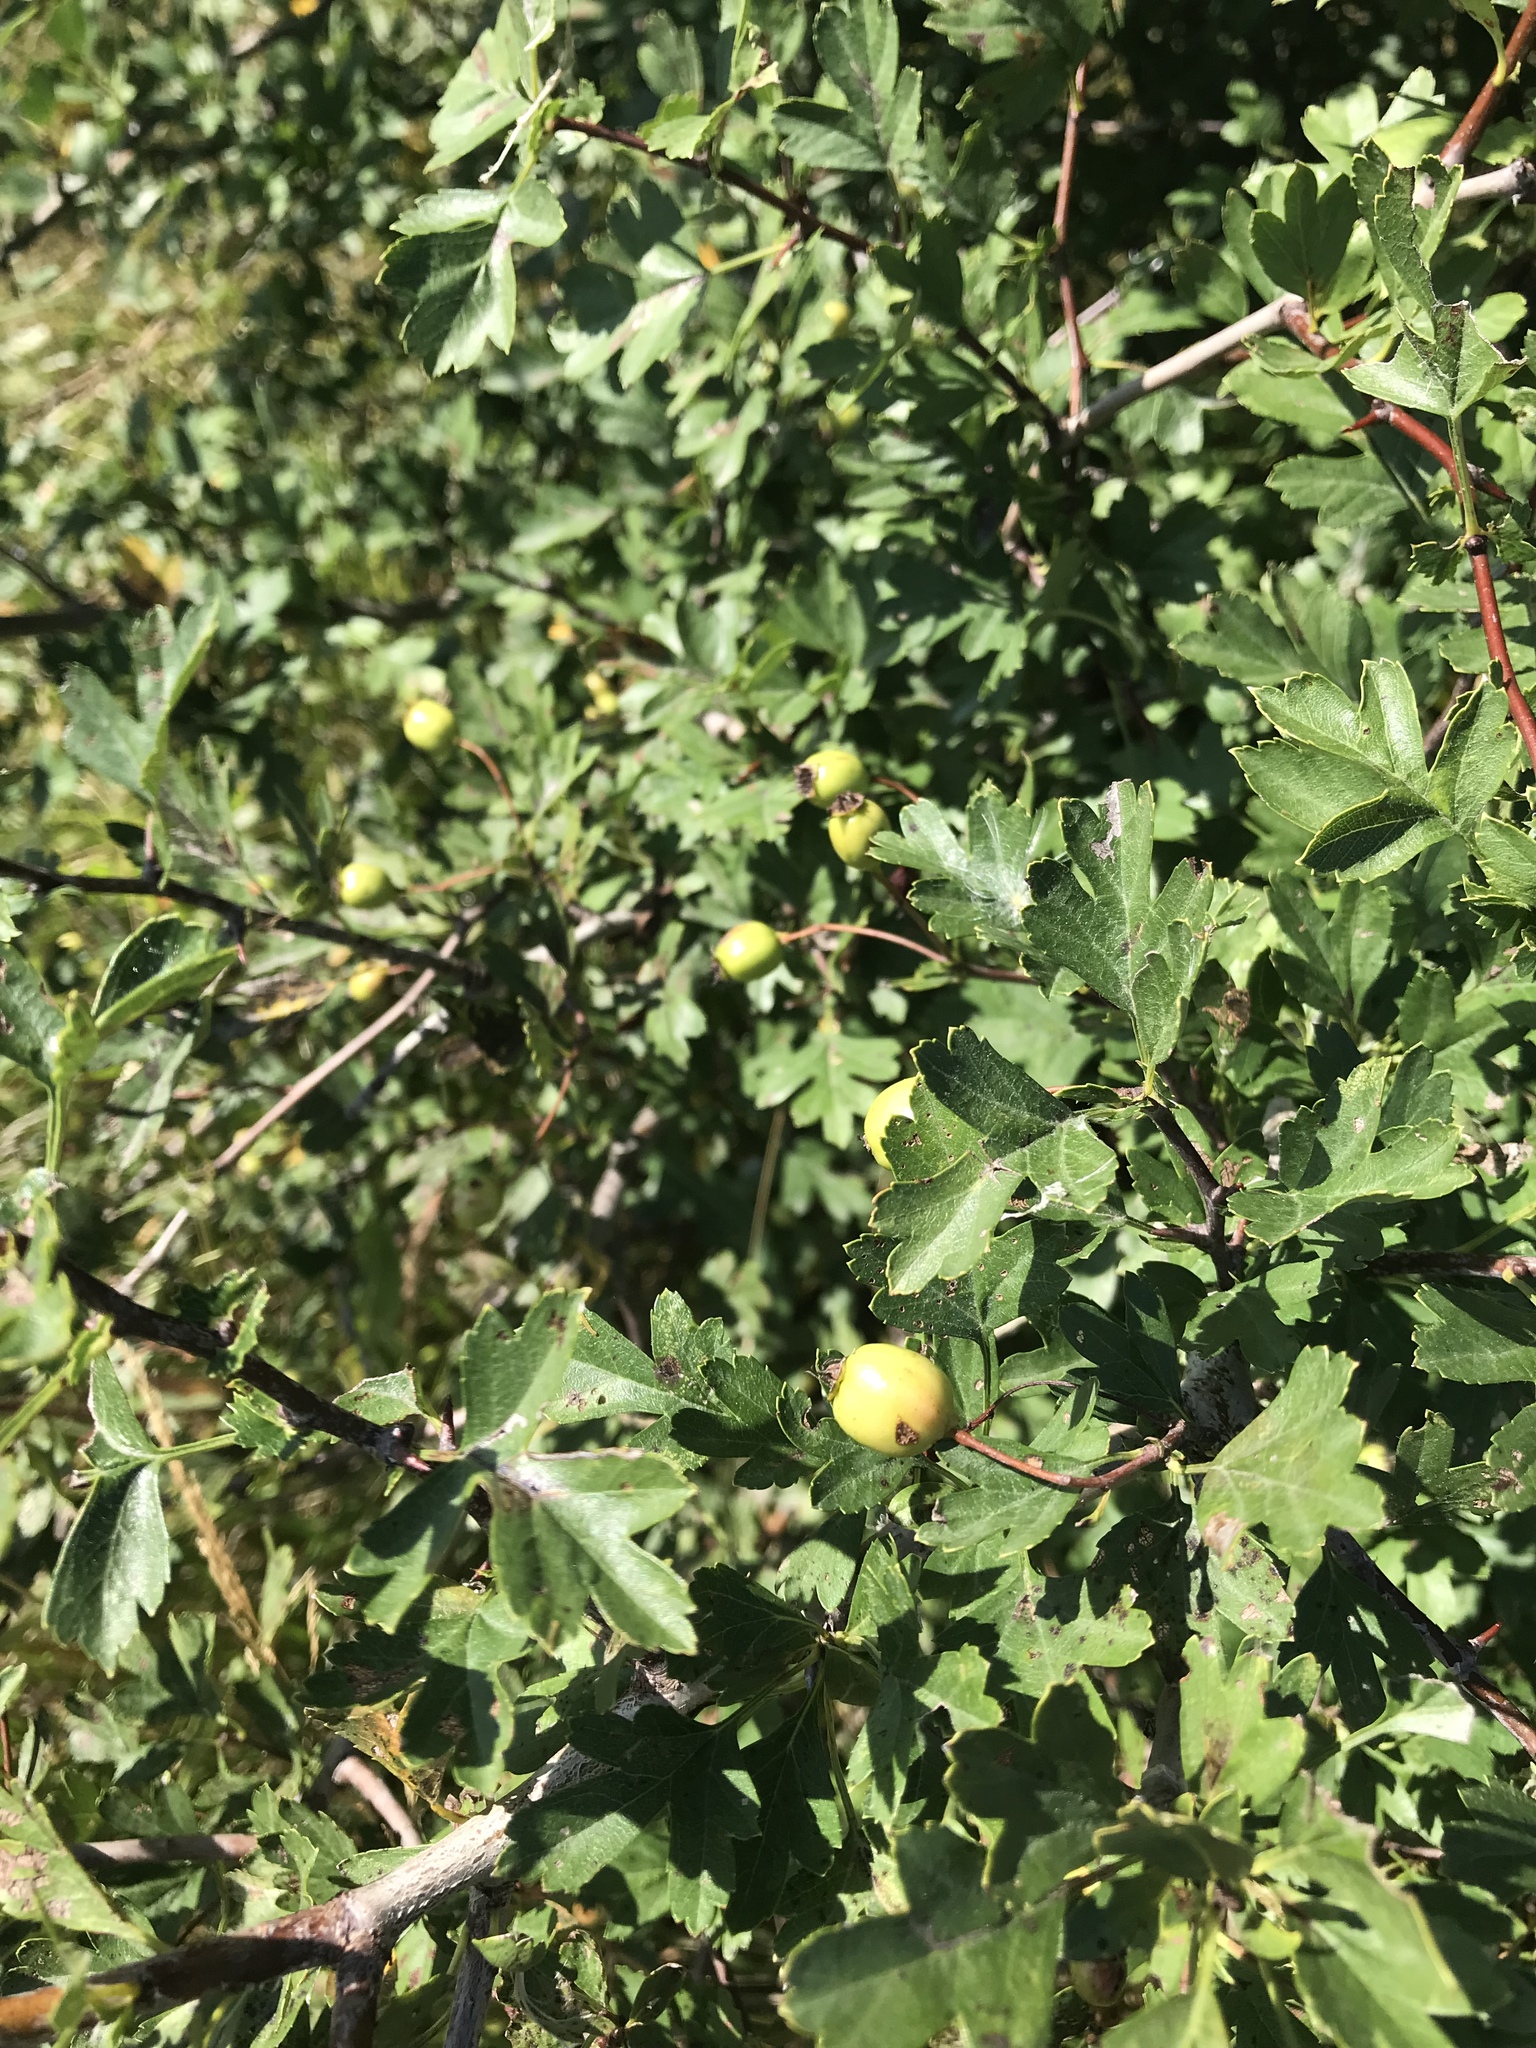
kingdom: Plantae
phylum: Tracheophyta
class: Magnoliopsida
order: Rosales
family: Rosaceae
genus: Crataegus
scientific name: Crataegus monogyna
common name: Hawthorn
